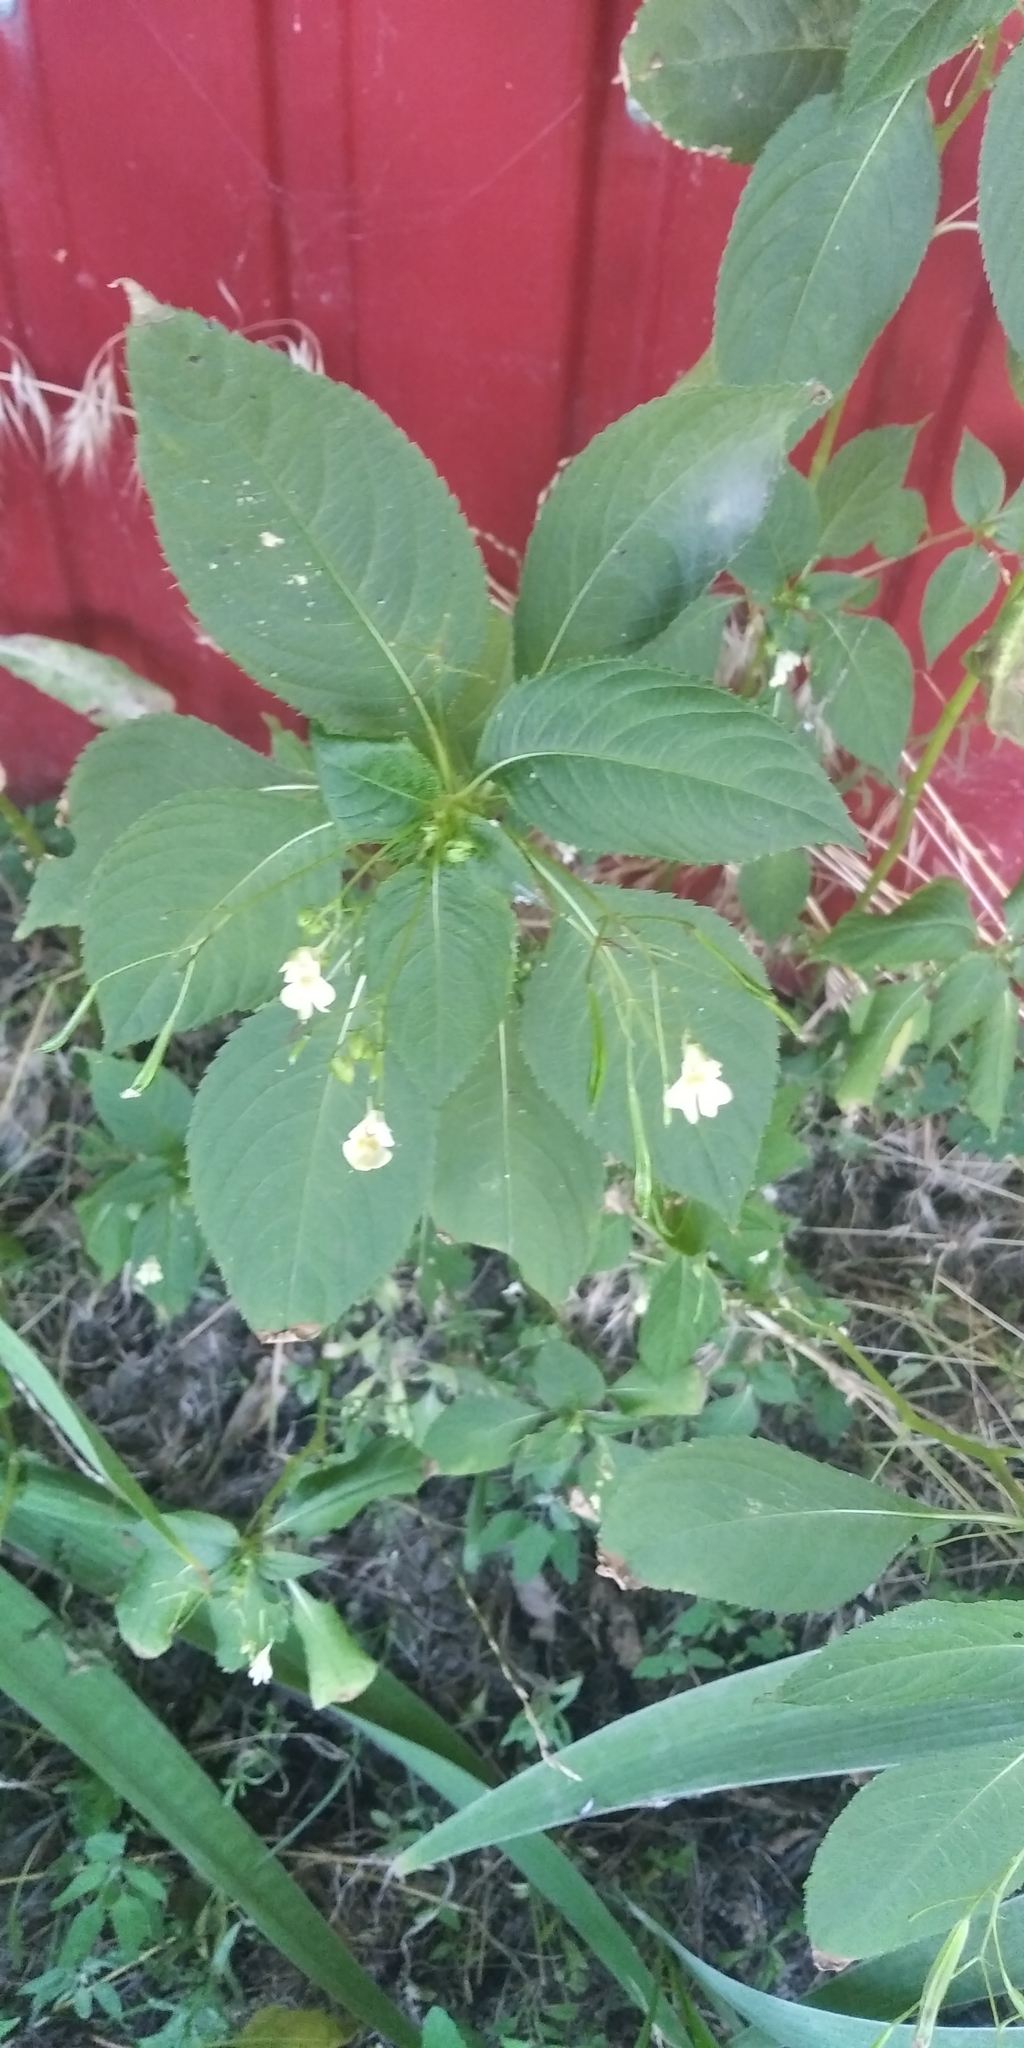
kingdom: Plantae
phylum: Tracheophyta
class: Magnoliopsida
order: Ericales
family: Balsaminaceae
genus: Impatiens
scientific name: Impatiens parviflora
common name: Small balsam
